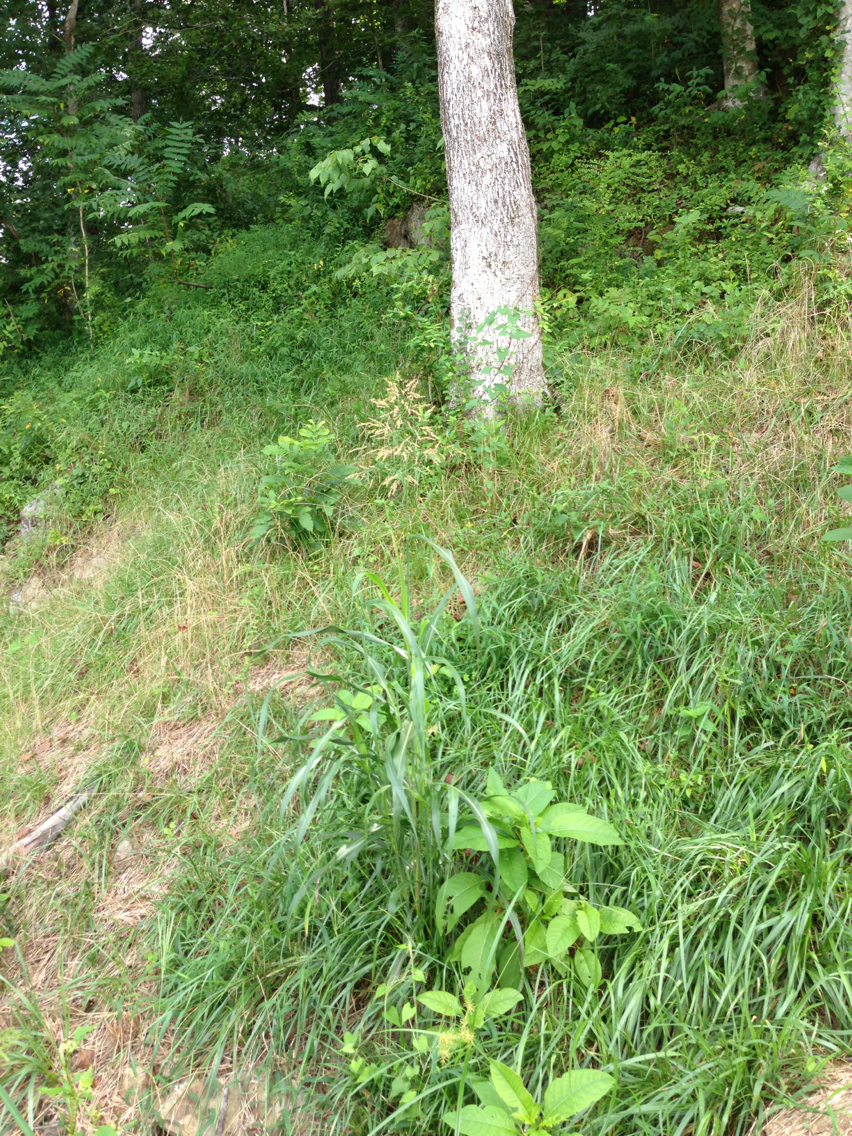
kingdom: Plantae
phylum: Tracheophyta
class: Liliopsida
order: Poales
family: Poaceae
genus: Bromus
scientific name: Bromus inermis
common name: Smooth brome
